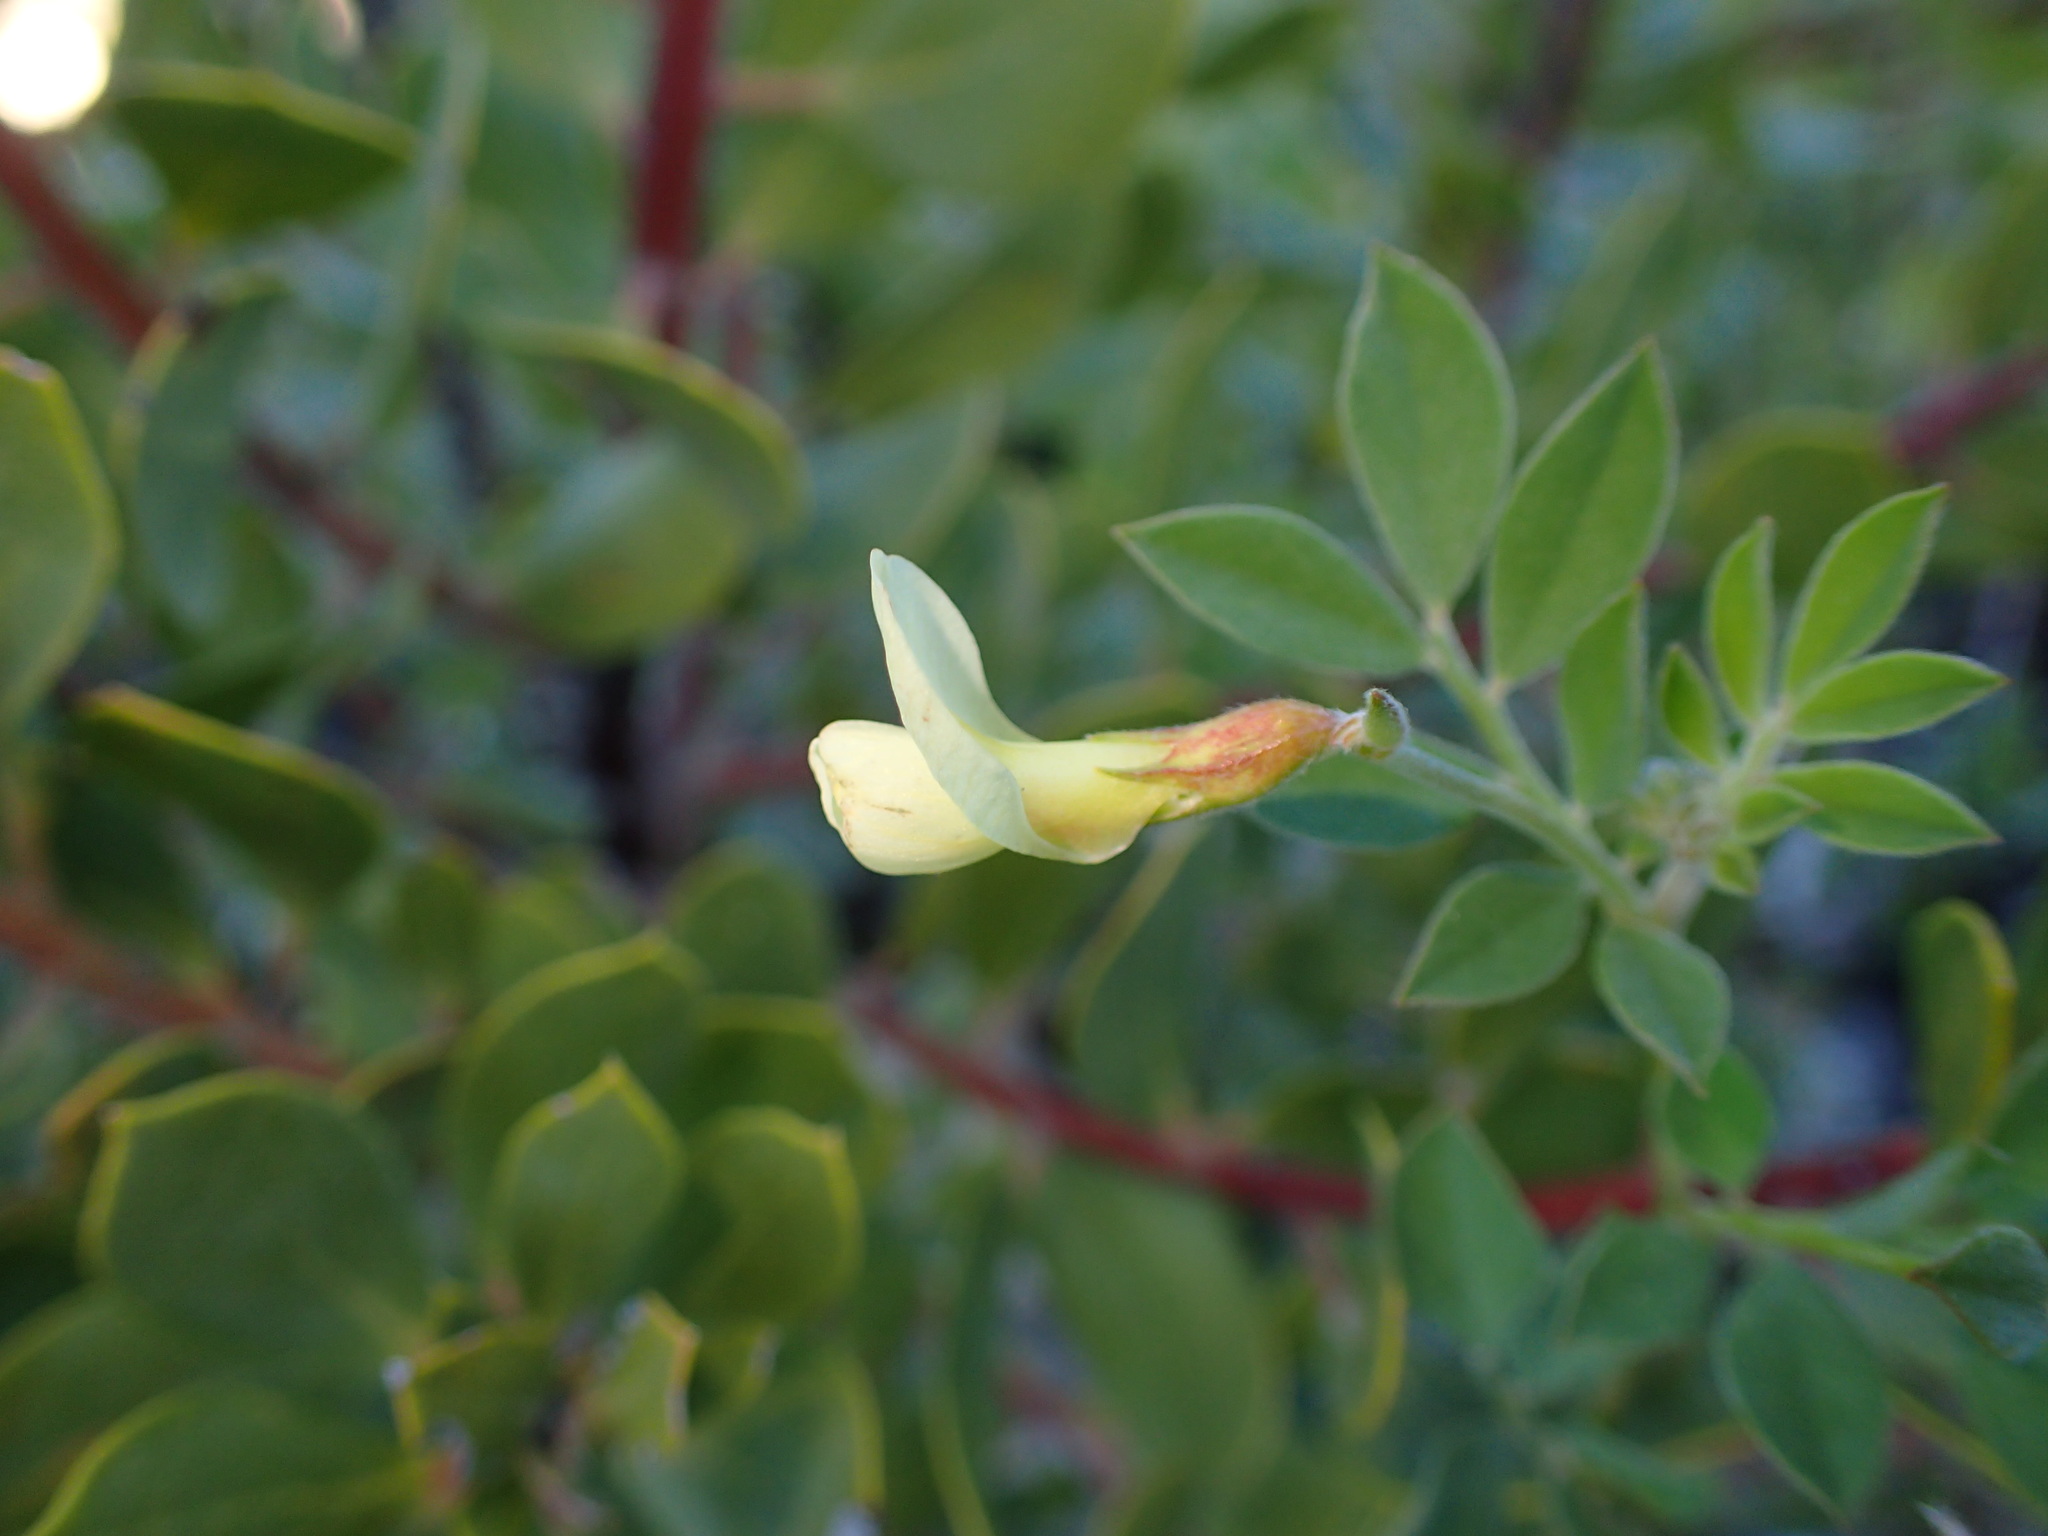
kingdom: Plantae
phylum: Tracheophyta
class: Magnoliopsida
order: Fabales
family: Fabaceae
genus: Acmispon
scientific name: Acmispon grandiflorus
